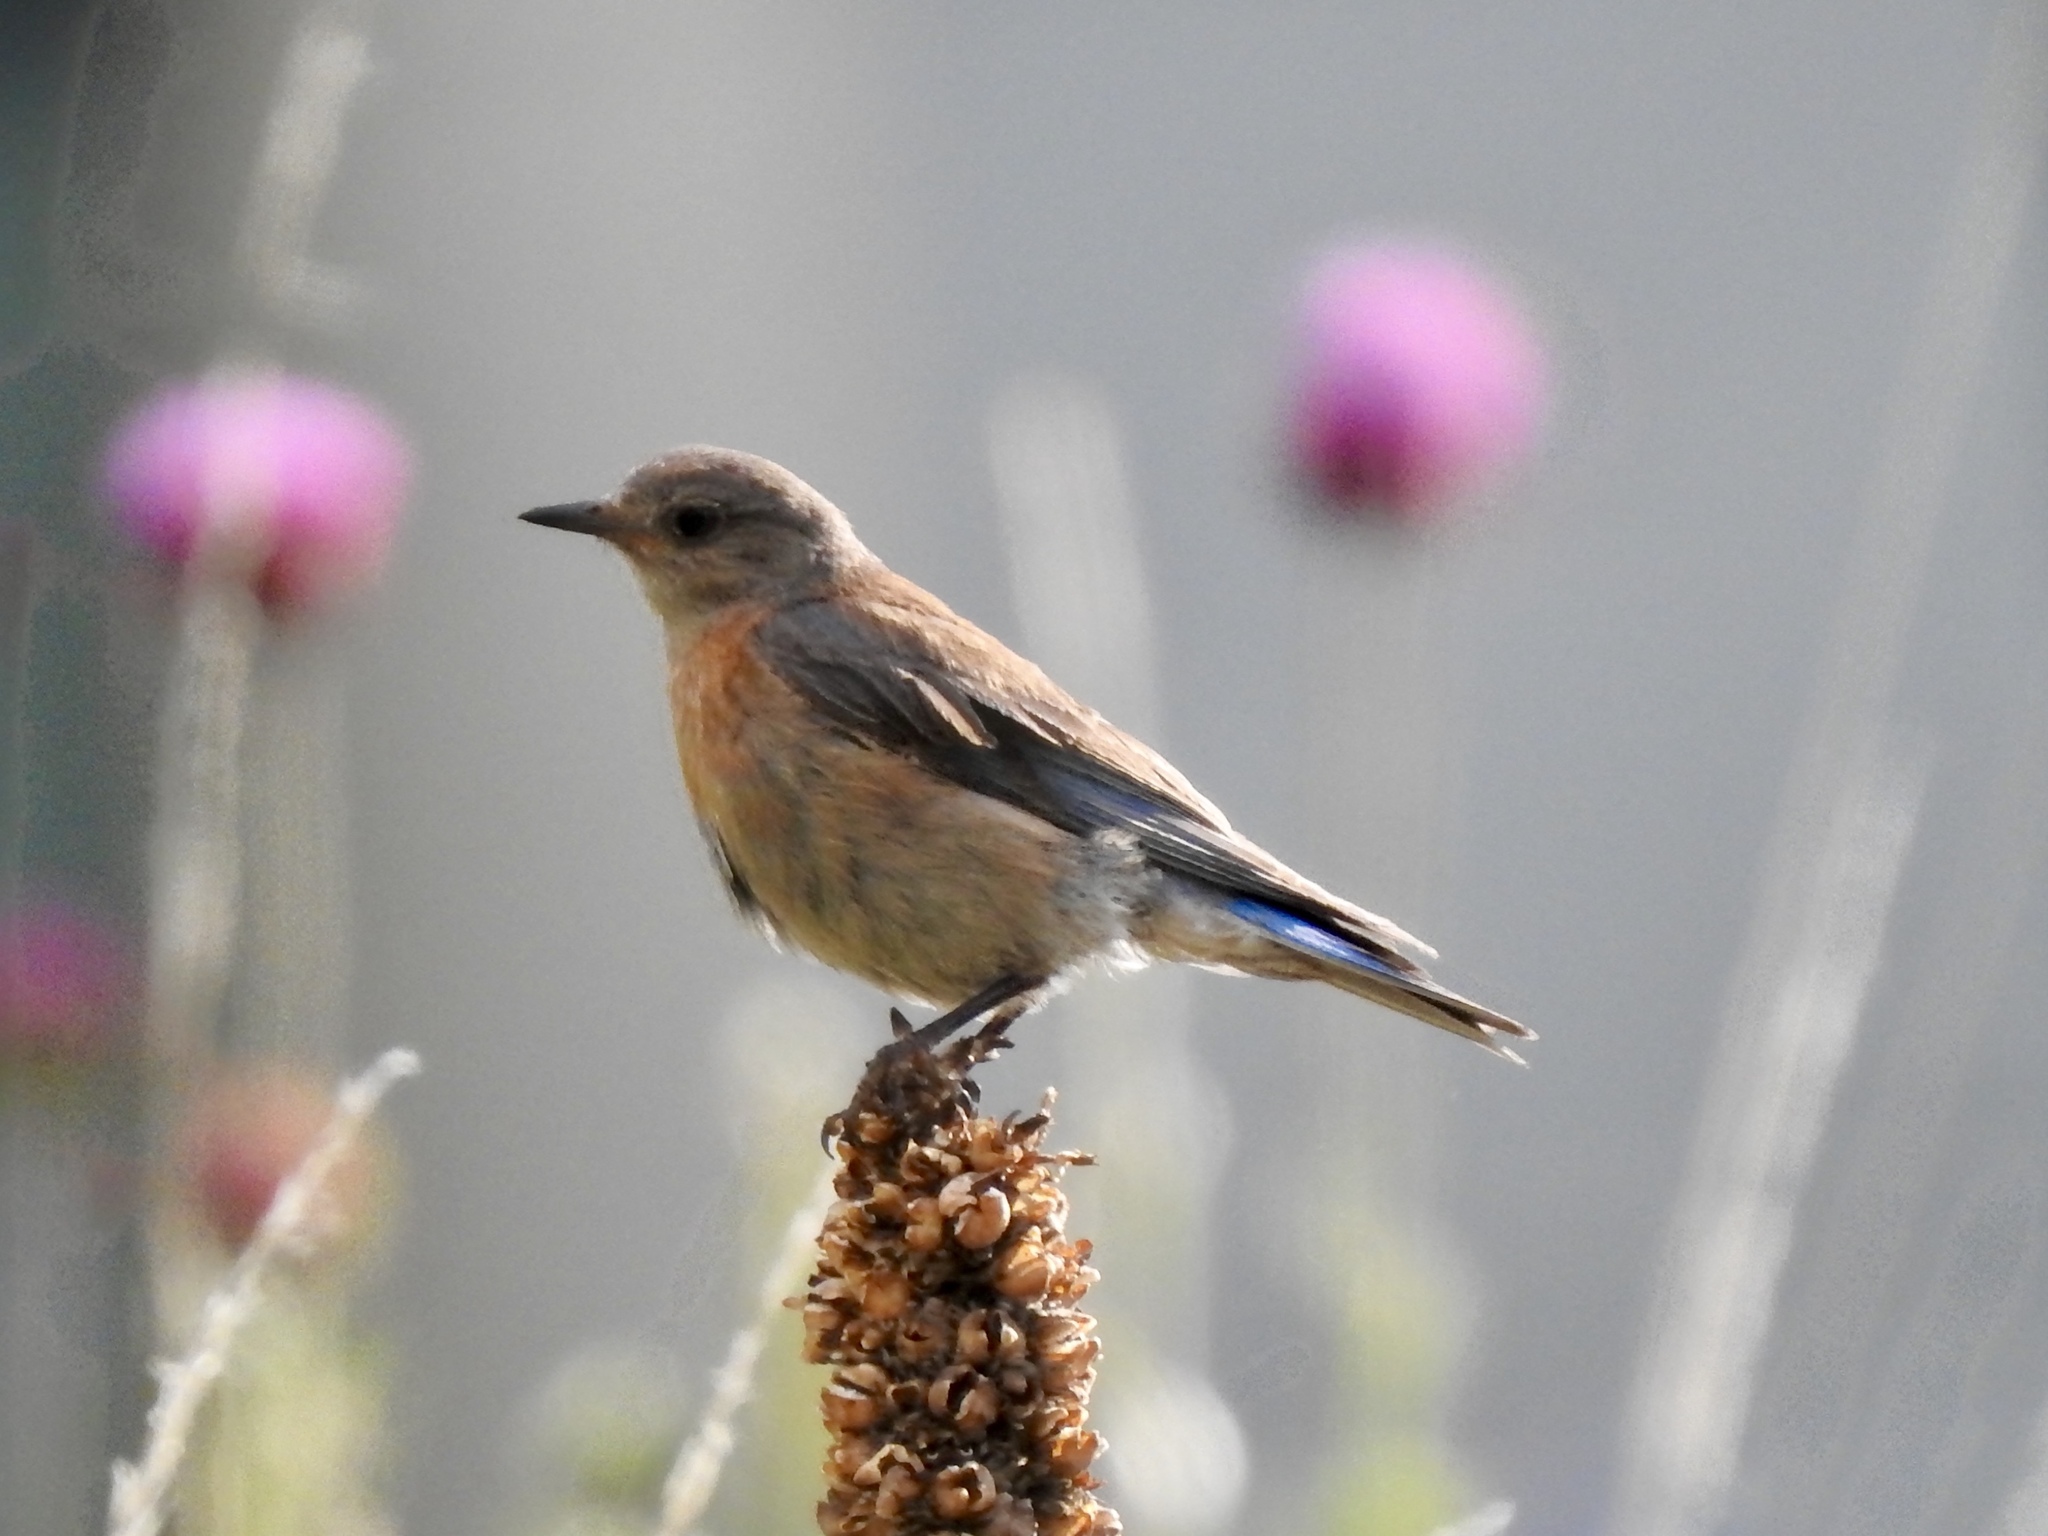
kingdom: Animalia
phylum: Chordata
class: Aves
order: Passeriformes
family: Turdidae
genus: Sialia
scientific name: Sialia mexicana
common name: Western bluebird
